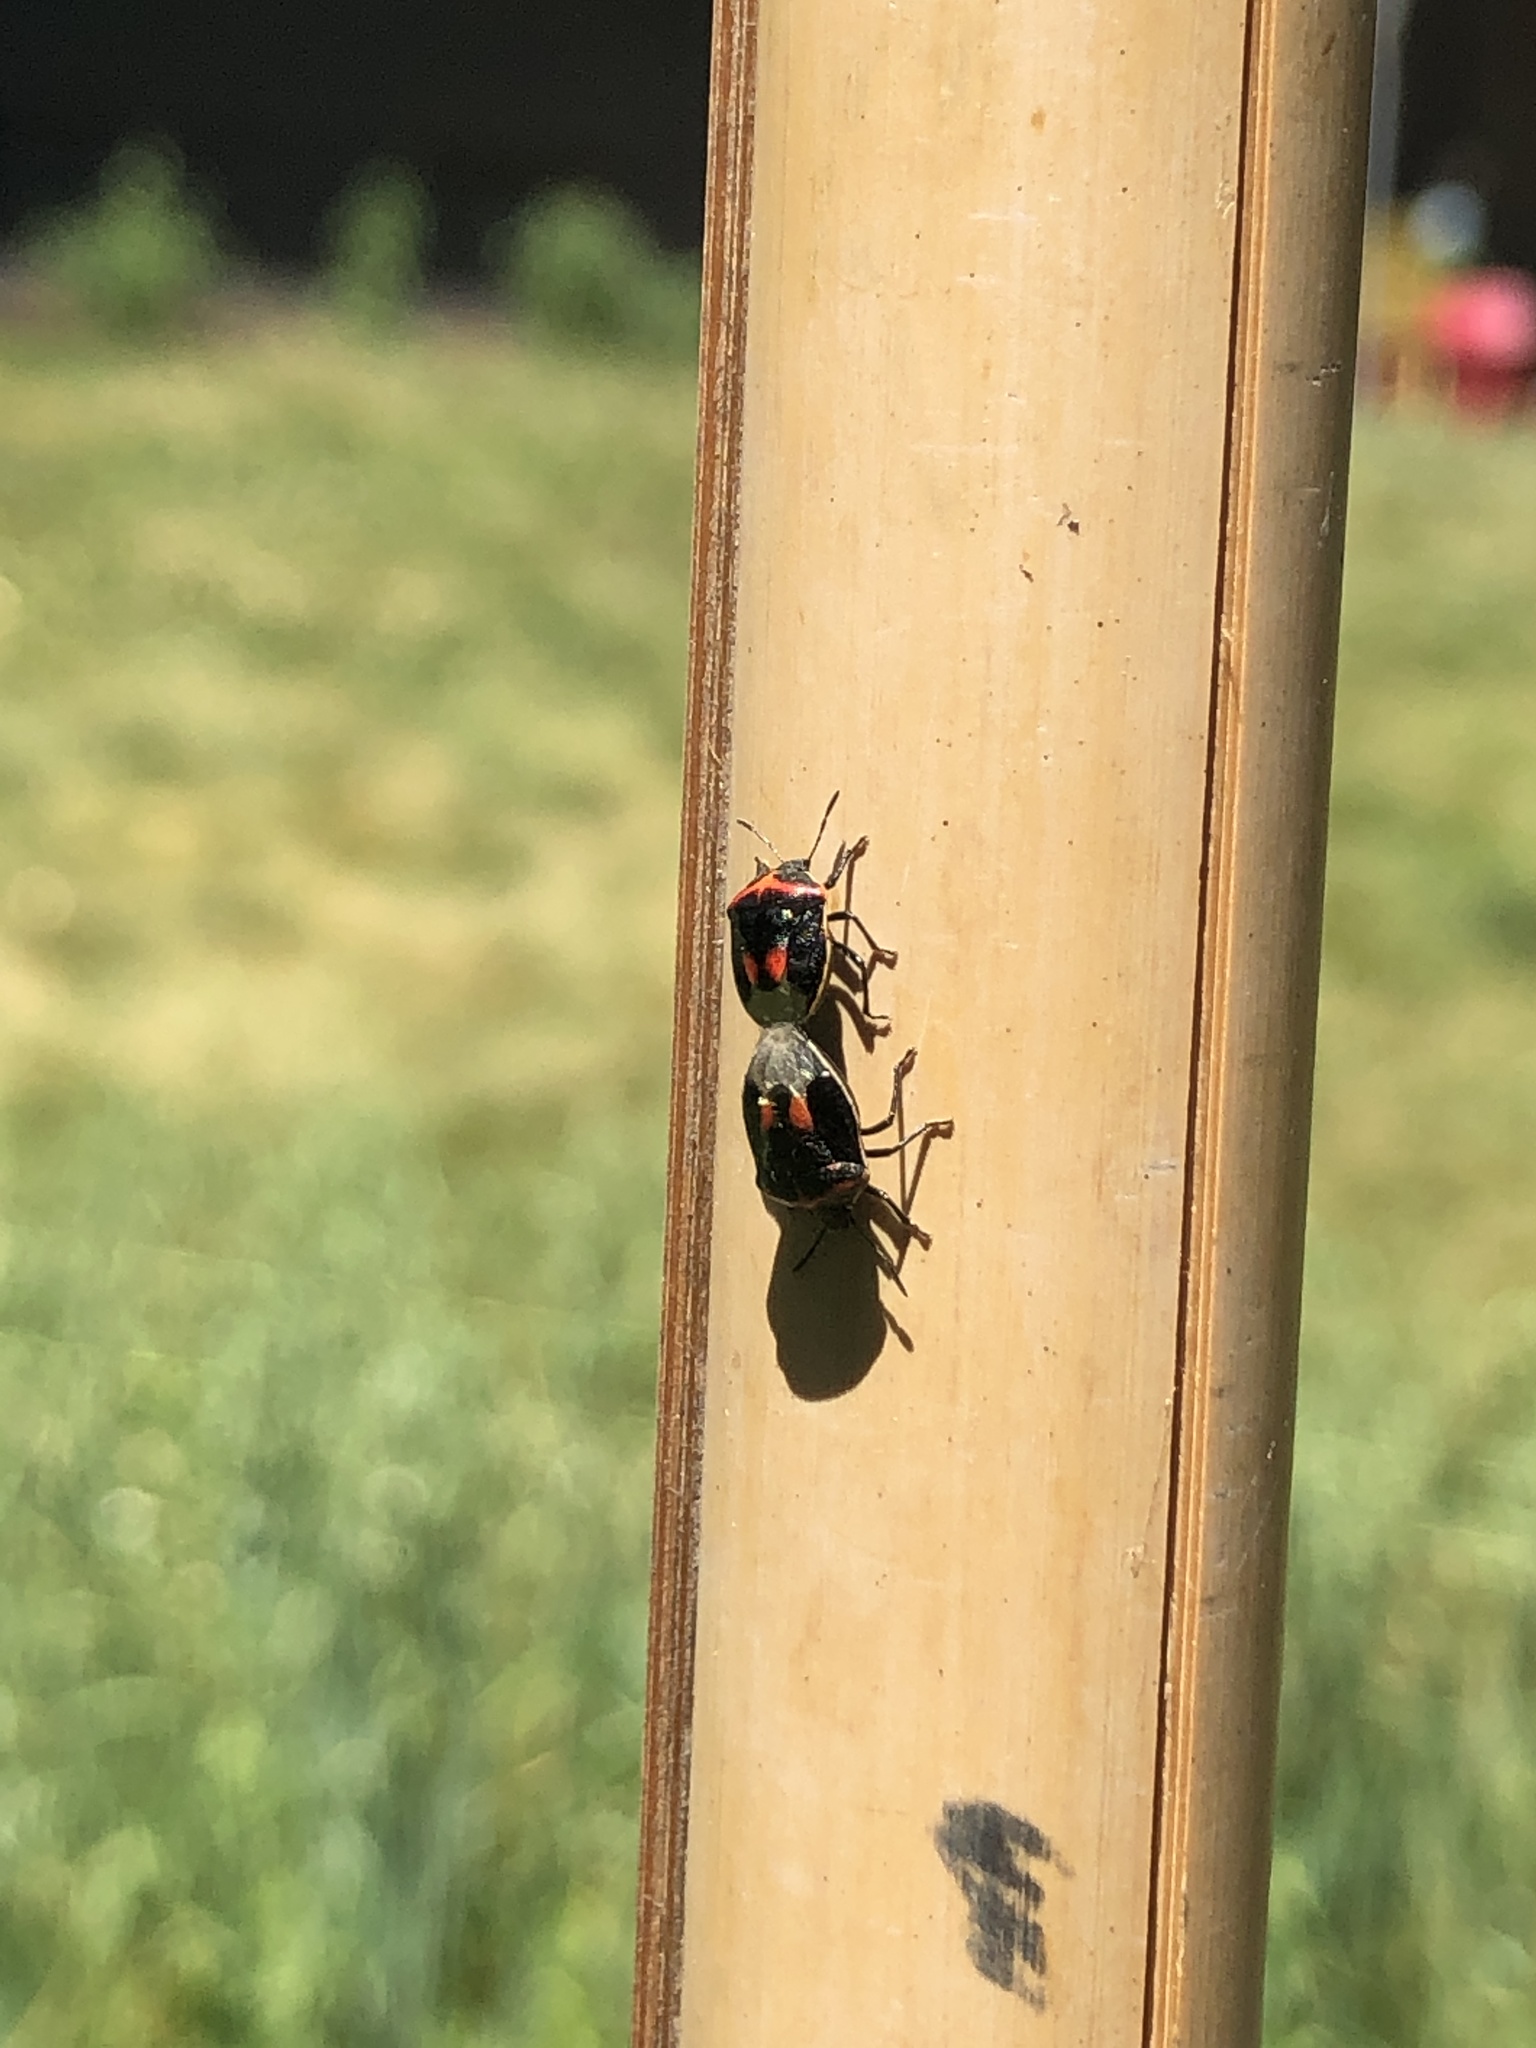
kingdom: Animalia
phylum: Arthropoda
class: Insecta
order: Hemiptera
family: Pentatomidae
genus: Cosmopepla
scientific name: Cosmopepla lintneriana
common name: Twice-stabbed stink bug
